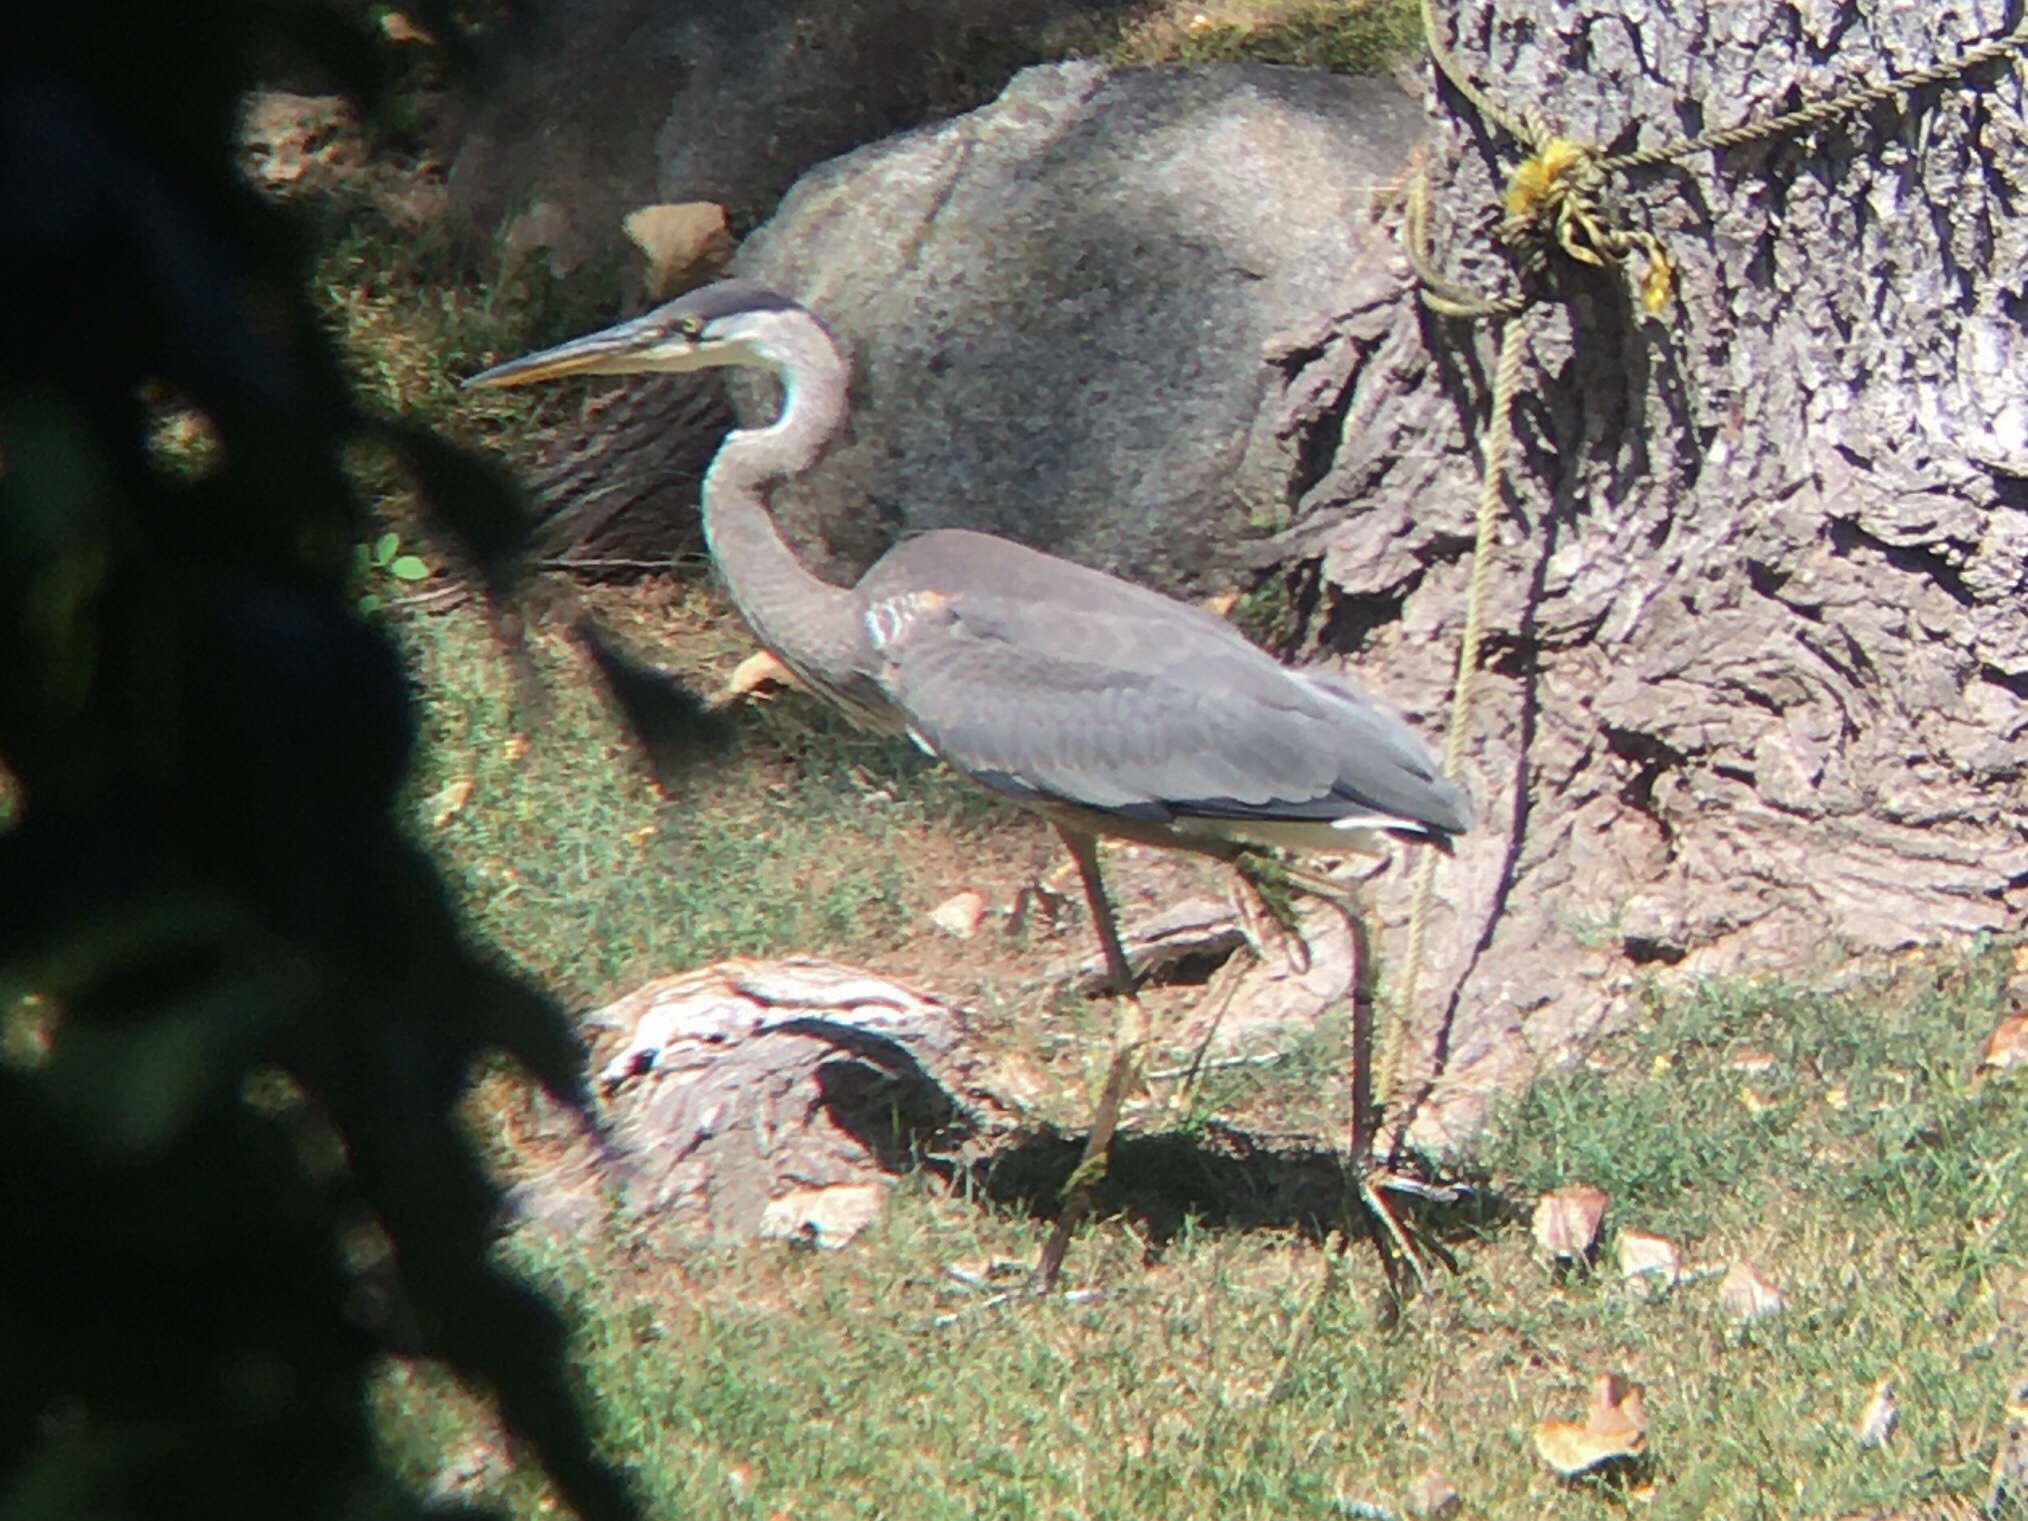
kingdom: Animalia
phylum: Chordata
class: Aves
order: Pelecaniformes
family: Ardeidae
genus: Ardea
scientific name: Ardea herodias
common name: Great blue heron
